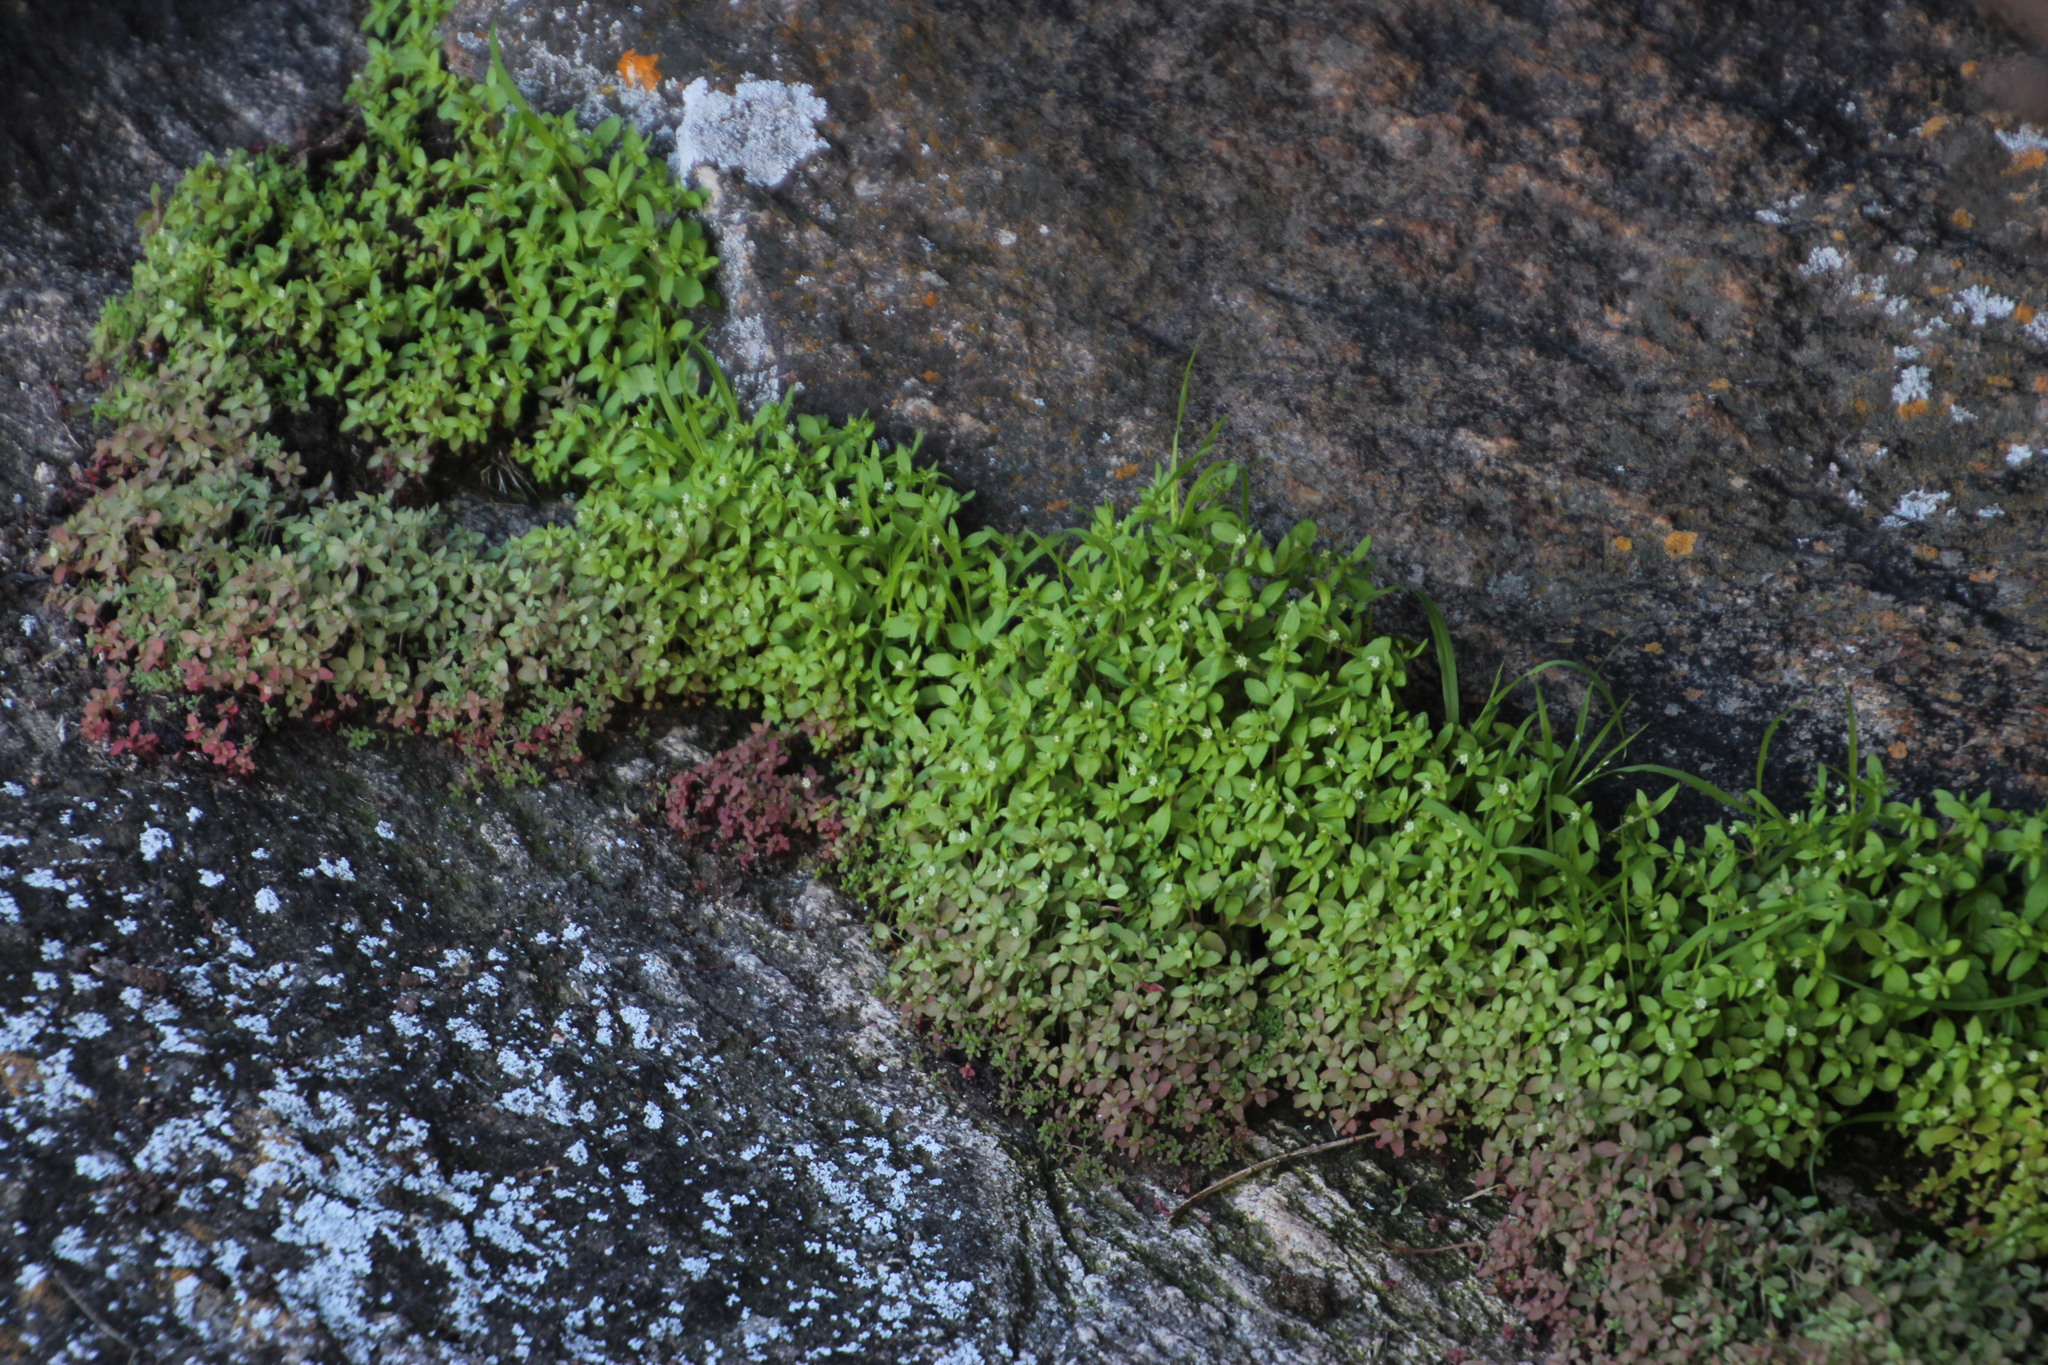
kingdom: Plantae
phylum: Tracheophyta
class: Magnoliopsida
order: Saxifragales
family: Crassulaceae
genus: Crassula
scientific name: Crassula strigosa
